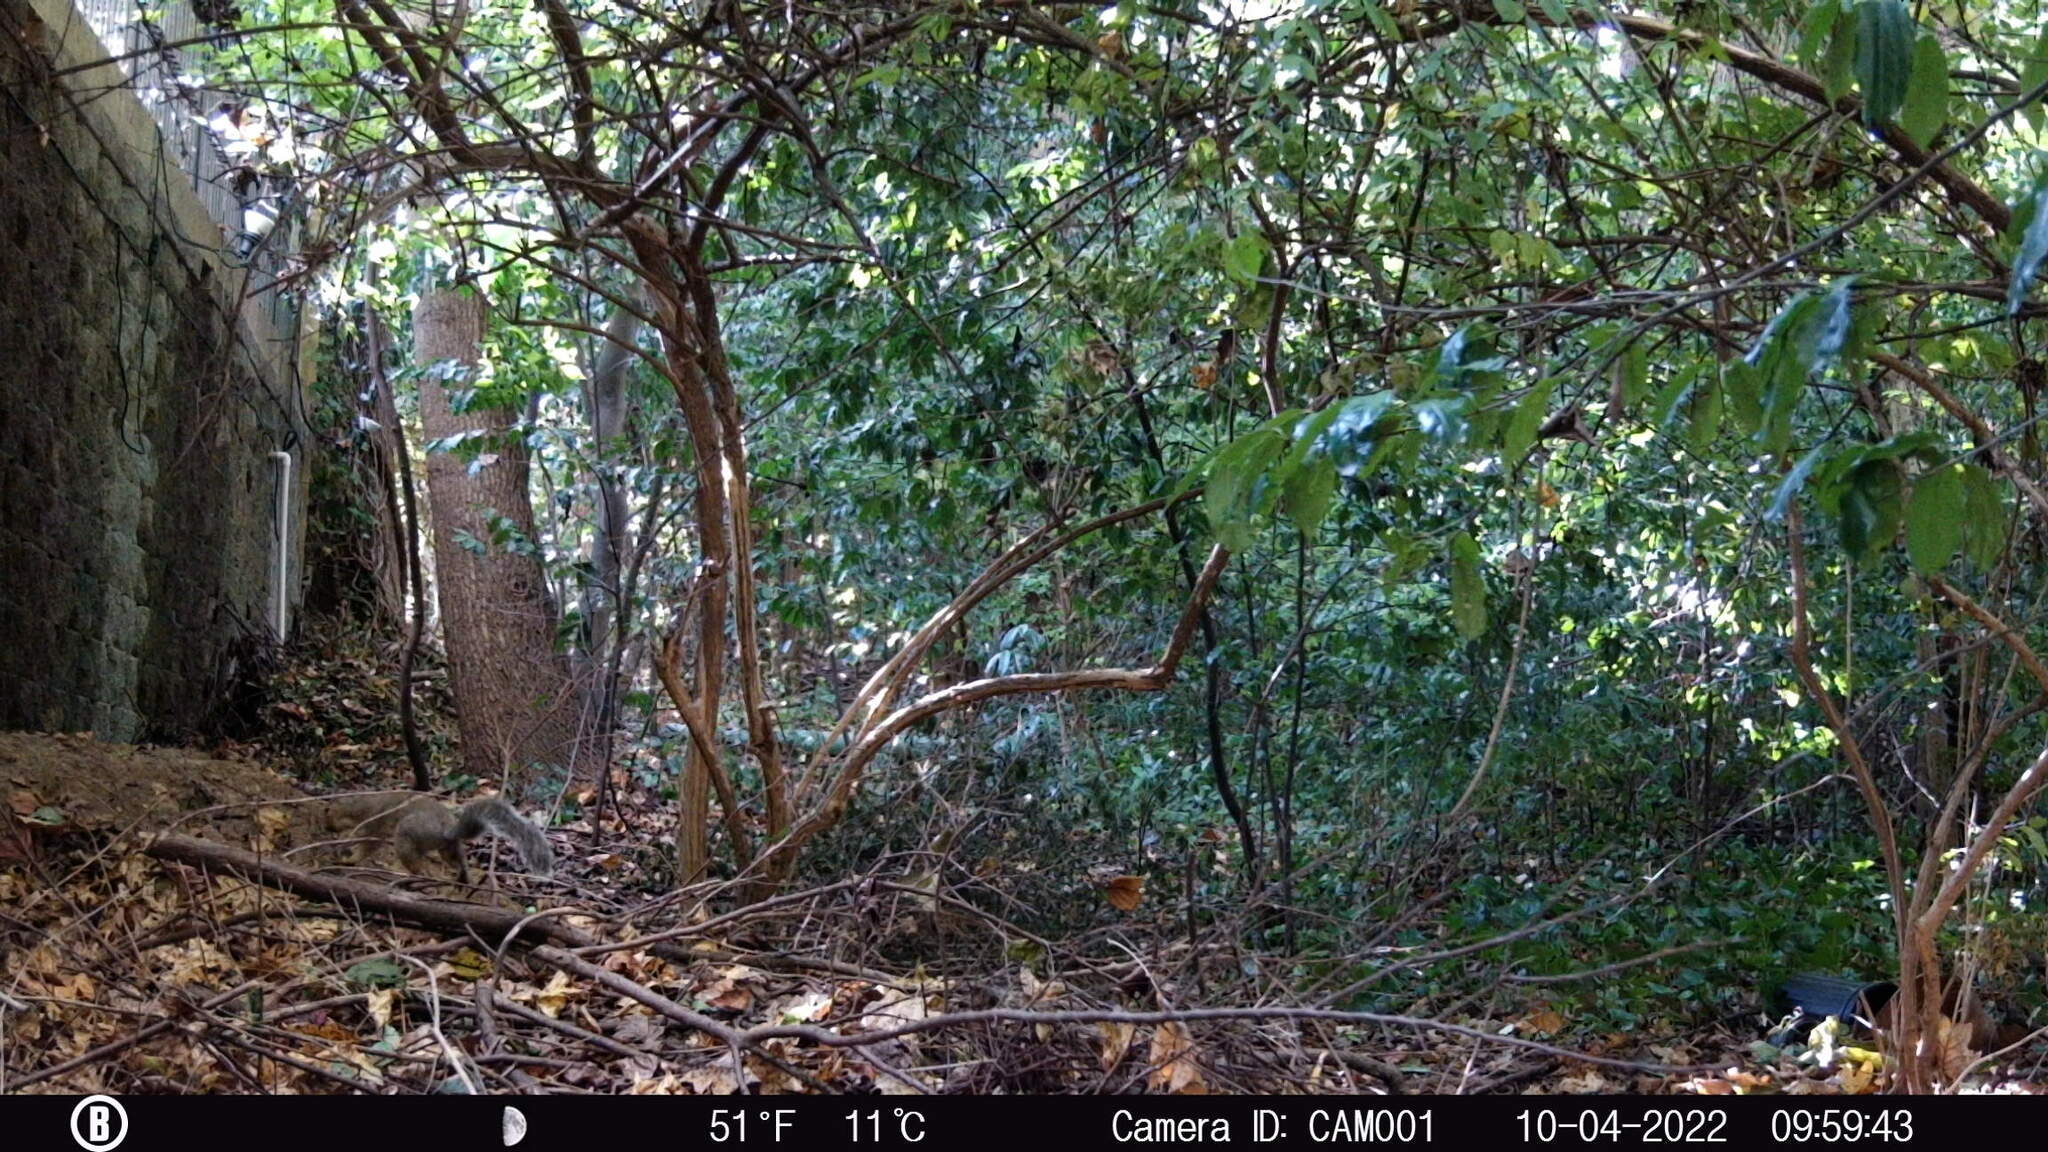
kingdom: Animalia
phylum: Chordata
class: Mammalia
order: Rodentia
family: Sciuridae
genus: Sciurus
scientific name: Sciurus carolinensis
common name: Eastern gray squirrel
